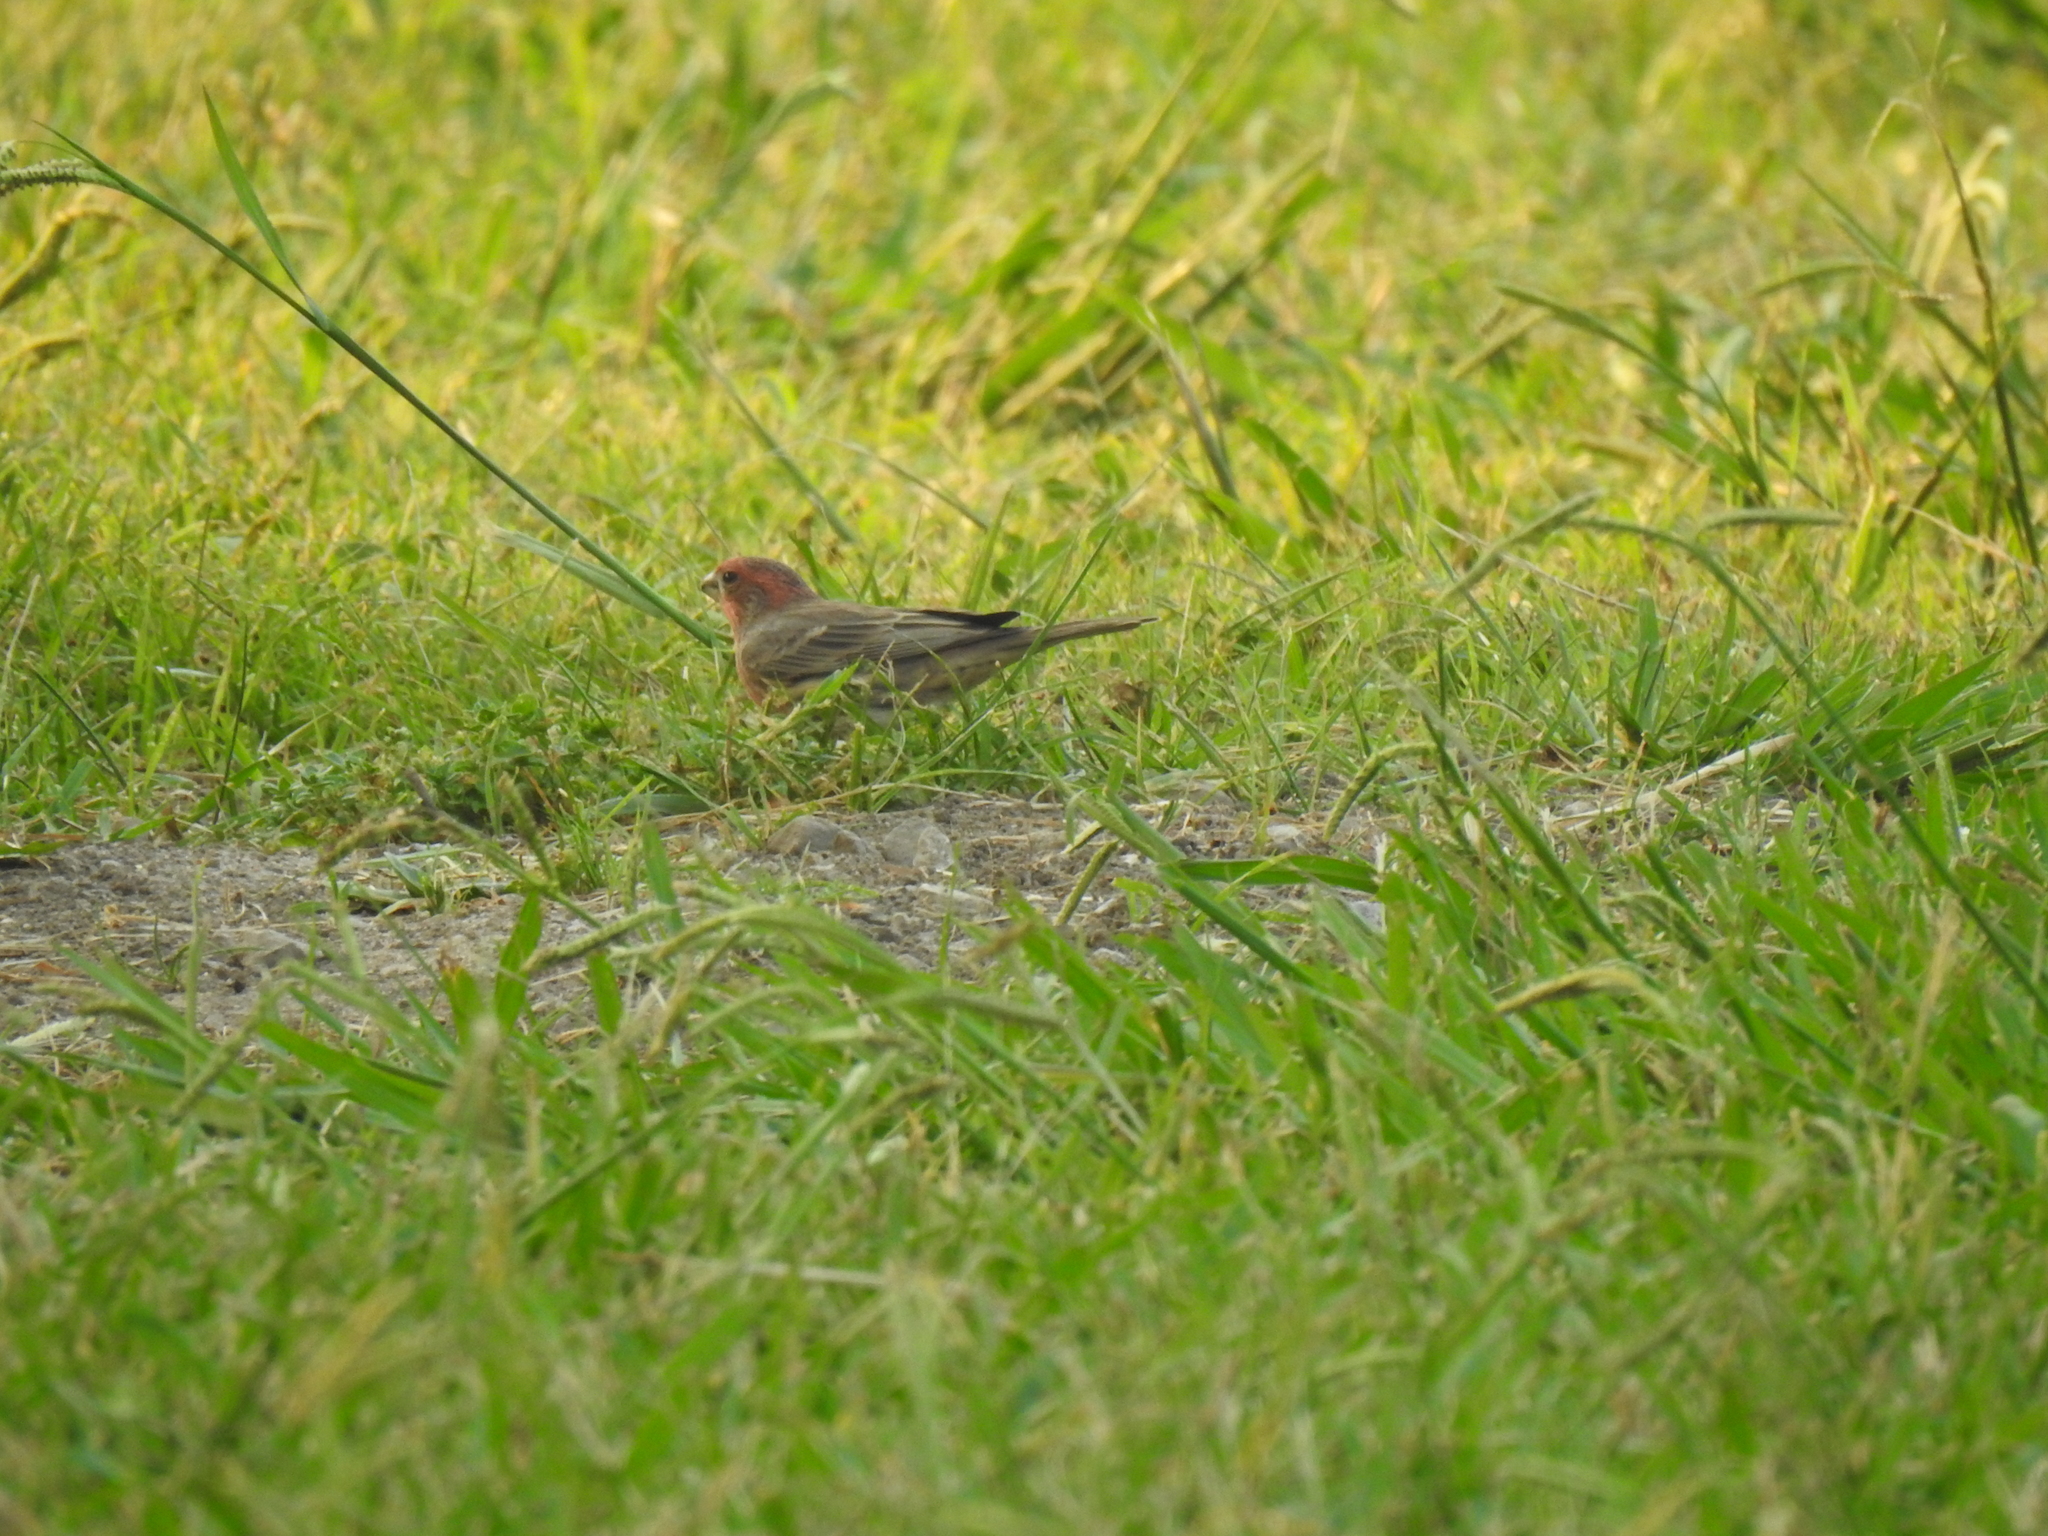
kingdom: Animalia
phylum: Chordata
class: Aves
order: Passeriformes
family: Fringillidae
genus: Haemorhous
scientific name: Haemorhous mexicanus
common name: House finch
